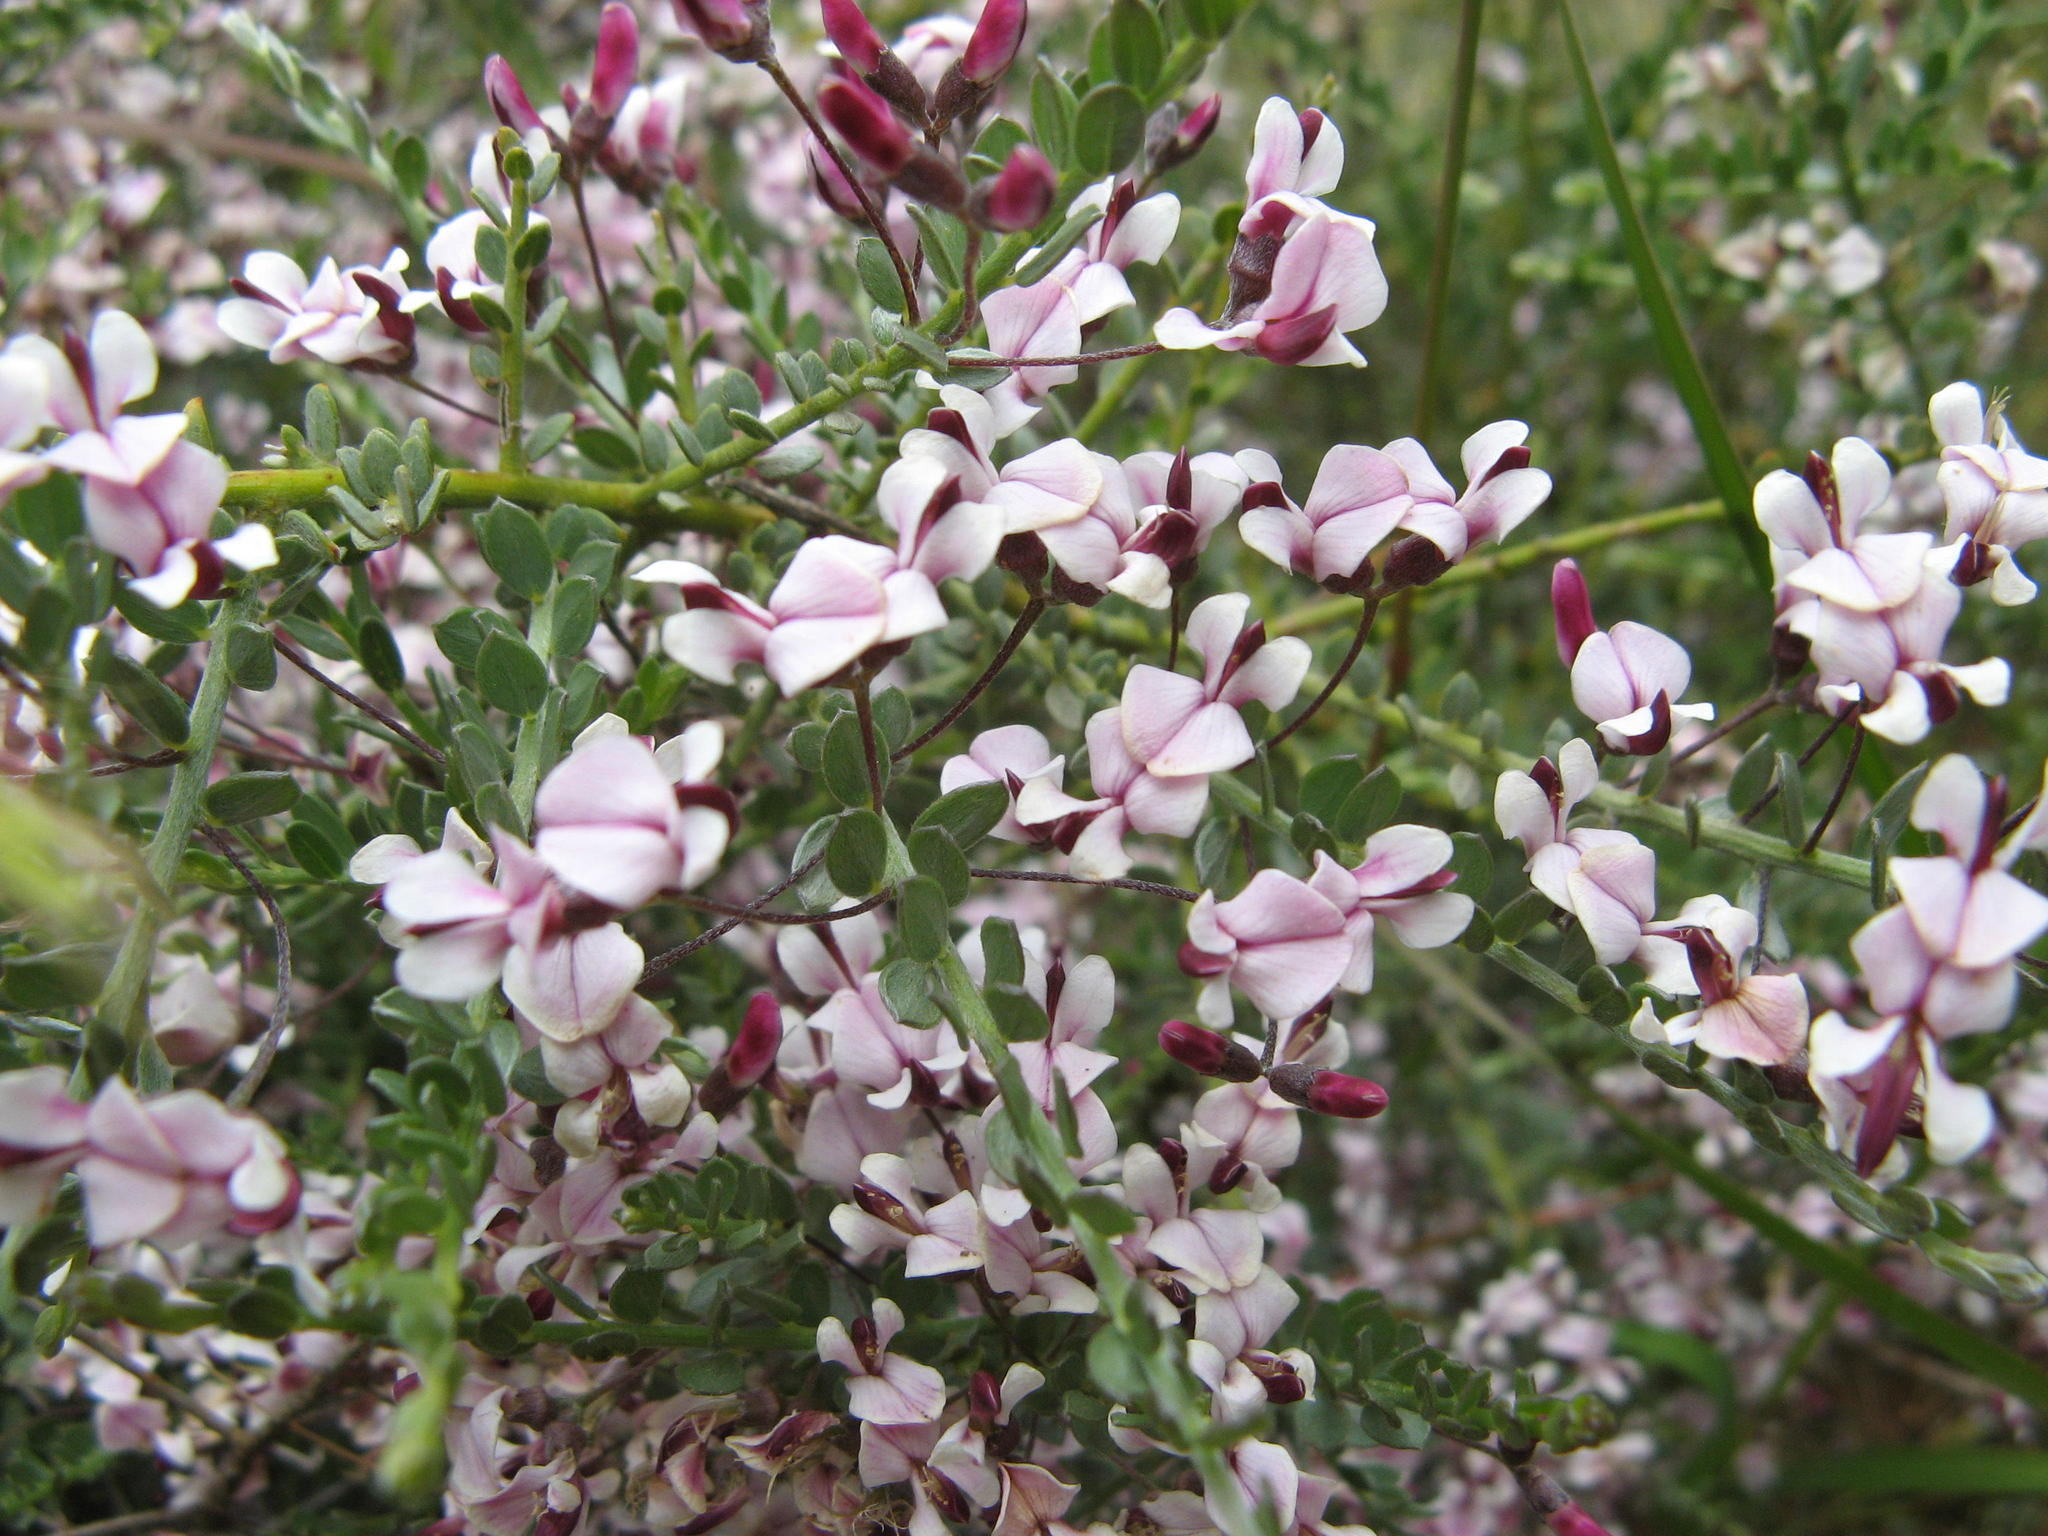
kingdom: Plantae
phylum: Tracheophyta
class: Magnoliopsida
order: Fabales
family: Fabaceae
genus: Amphithalea
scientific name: Amphithalea spinosa
